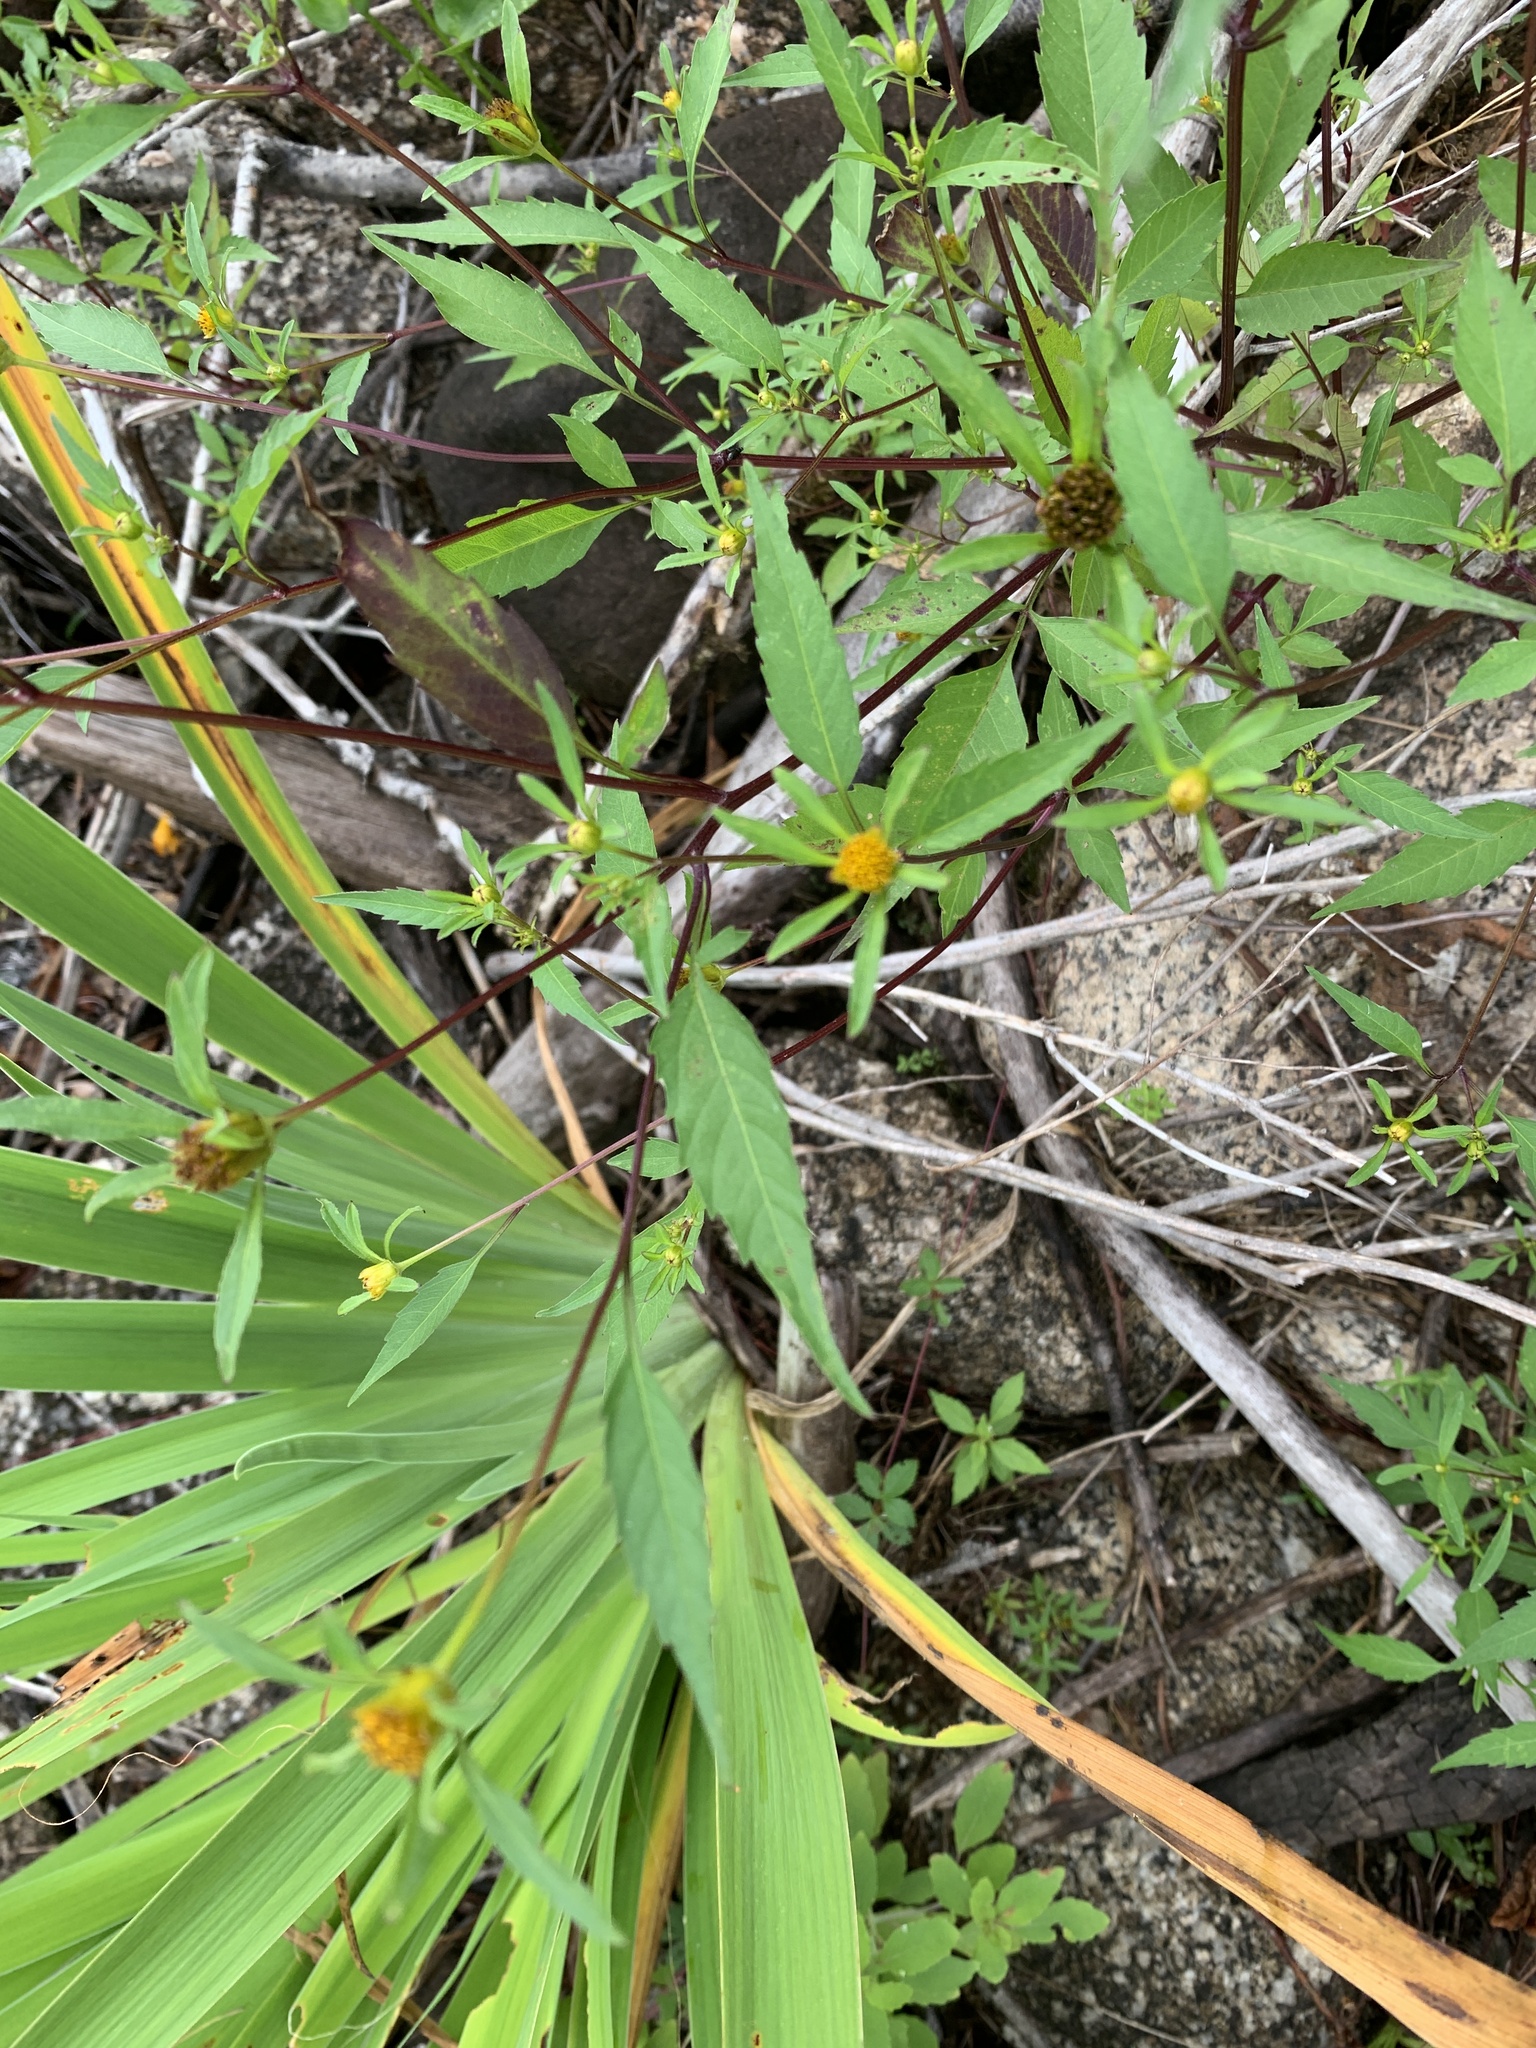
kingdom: Plantae
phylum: Tracheophyta
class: Magnoliopsida
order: Asterales
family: Asteraceae
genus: Bidens
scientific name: Bidens frondosa
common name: Beggarticks
